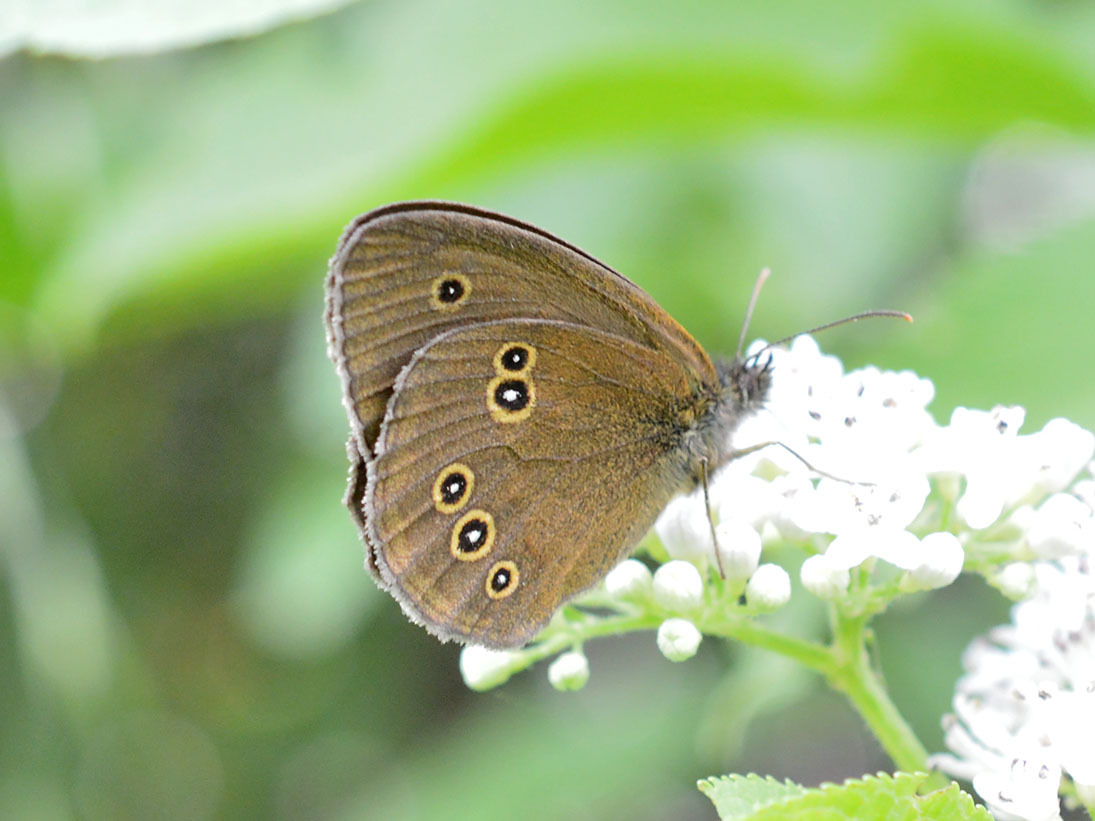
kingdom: Animalia
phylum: Arthropoda
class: Insecta
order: Lepidoptera
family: Nymphalidae
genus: Aphantopus
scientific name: Aphantopus hyperantus
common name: Ringlet
